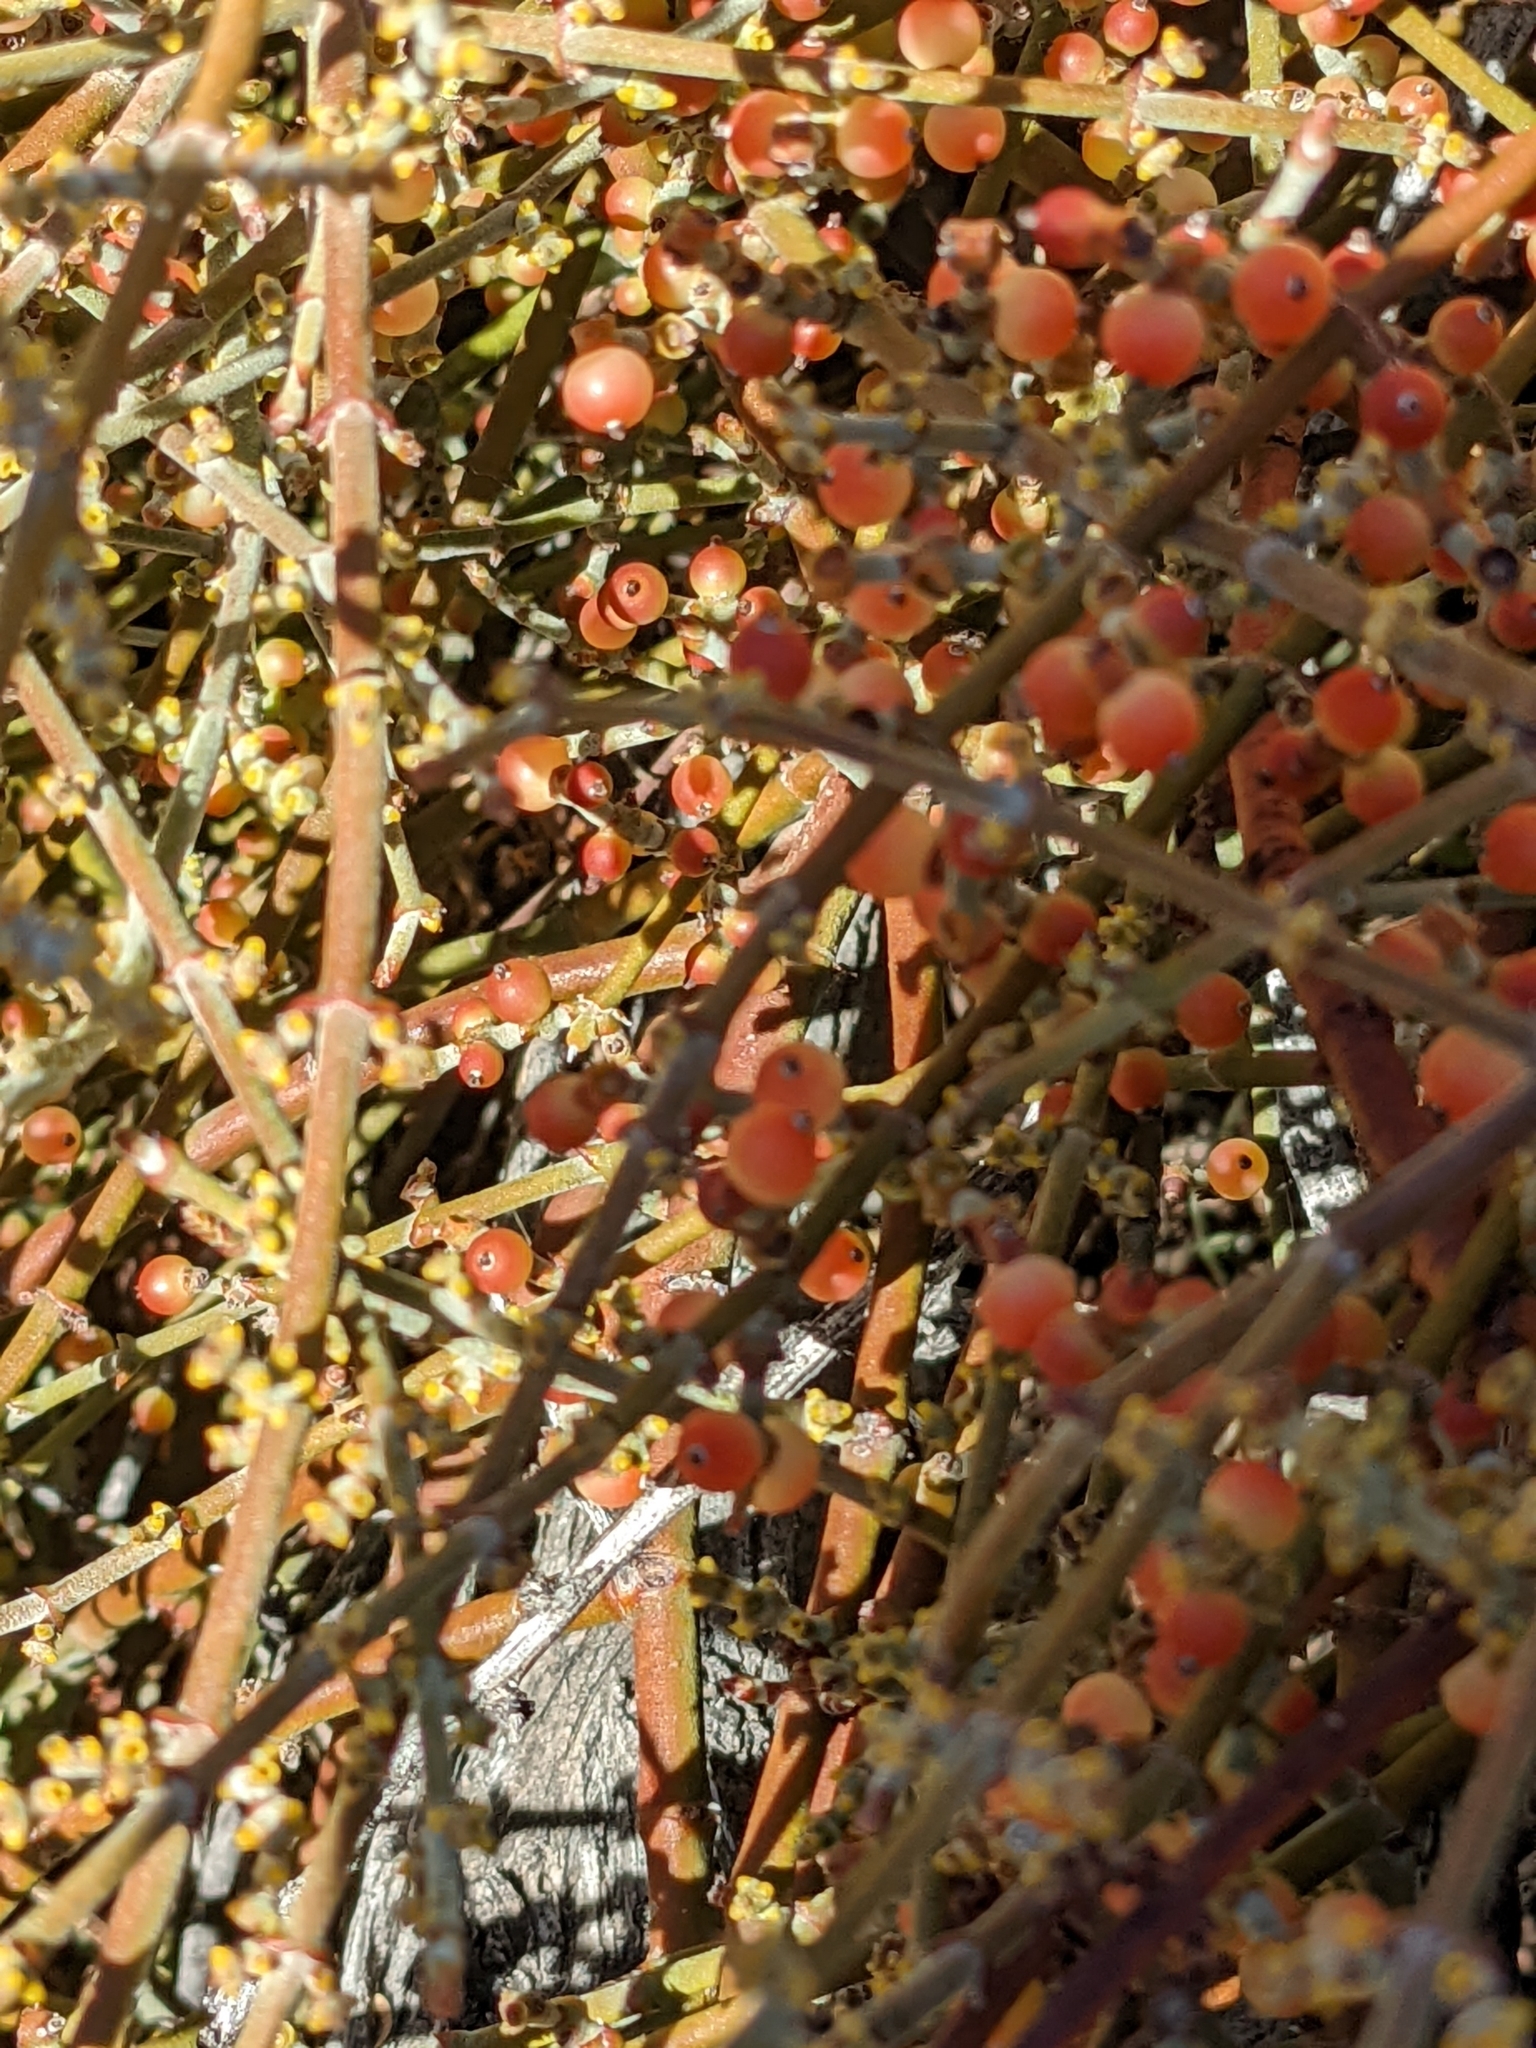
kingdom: Plantae
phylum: Tracheophyta
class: Magnoliopsida
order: Santalales
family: Viscaceae
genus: Phoradendron
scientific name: Phoradendron californicum
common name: Acacia mistletoe
